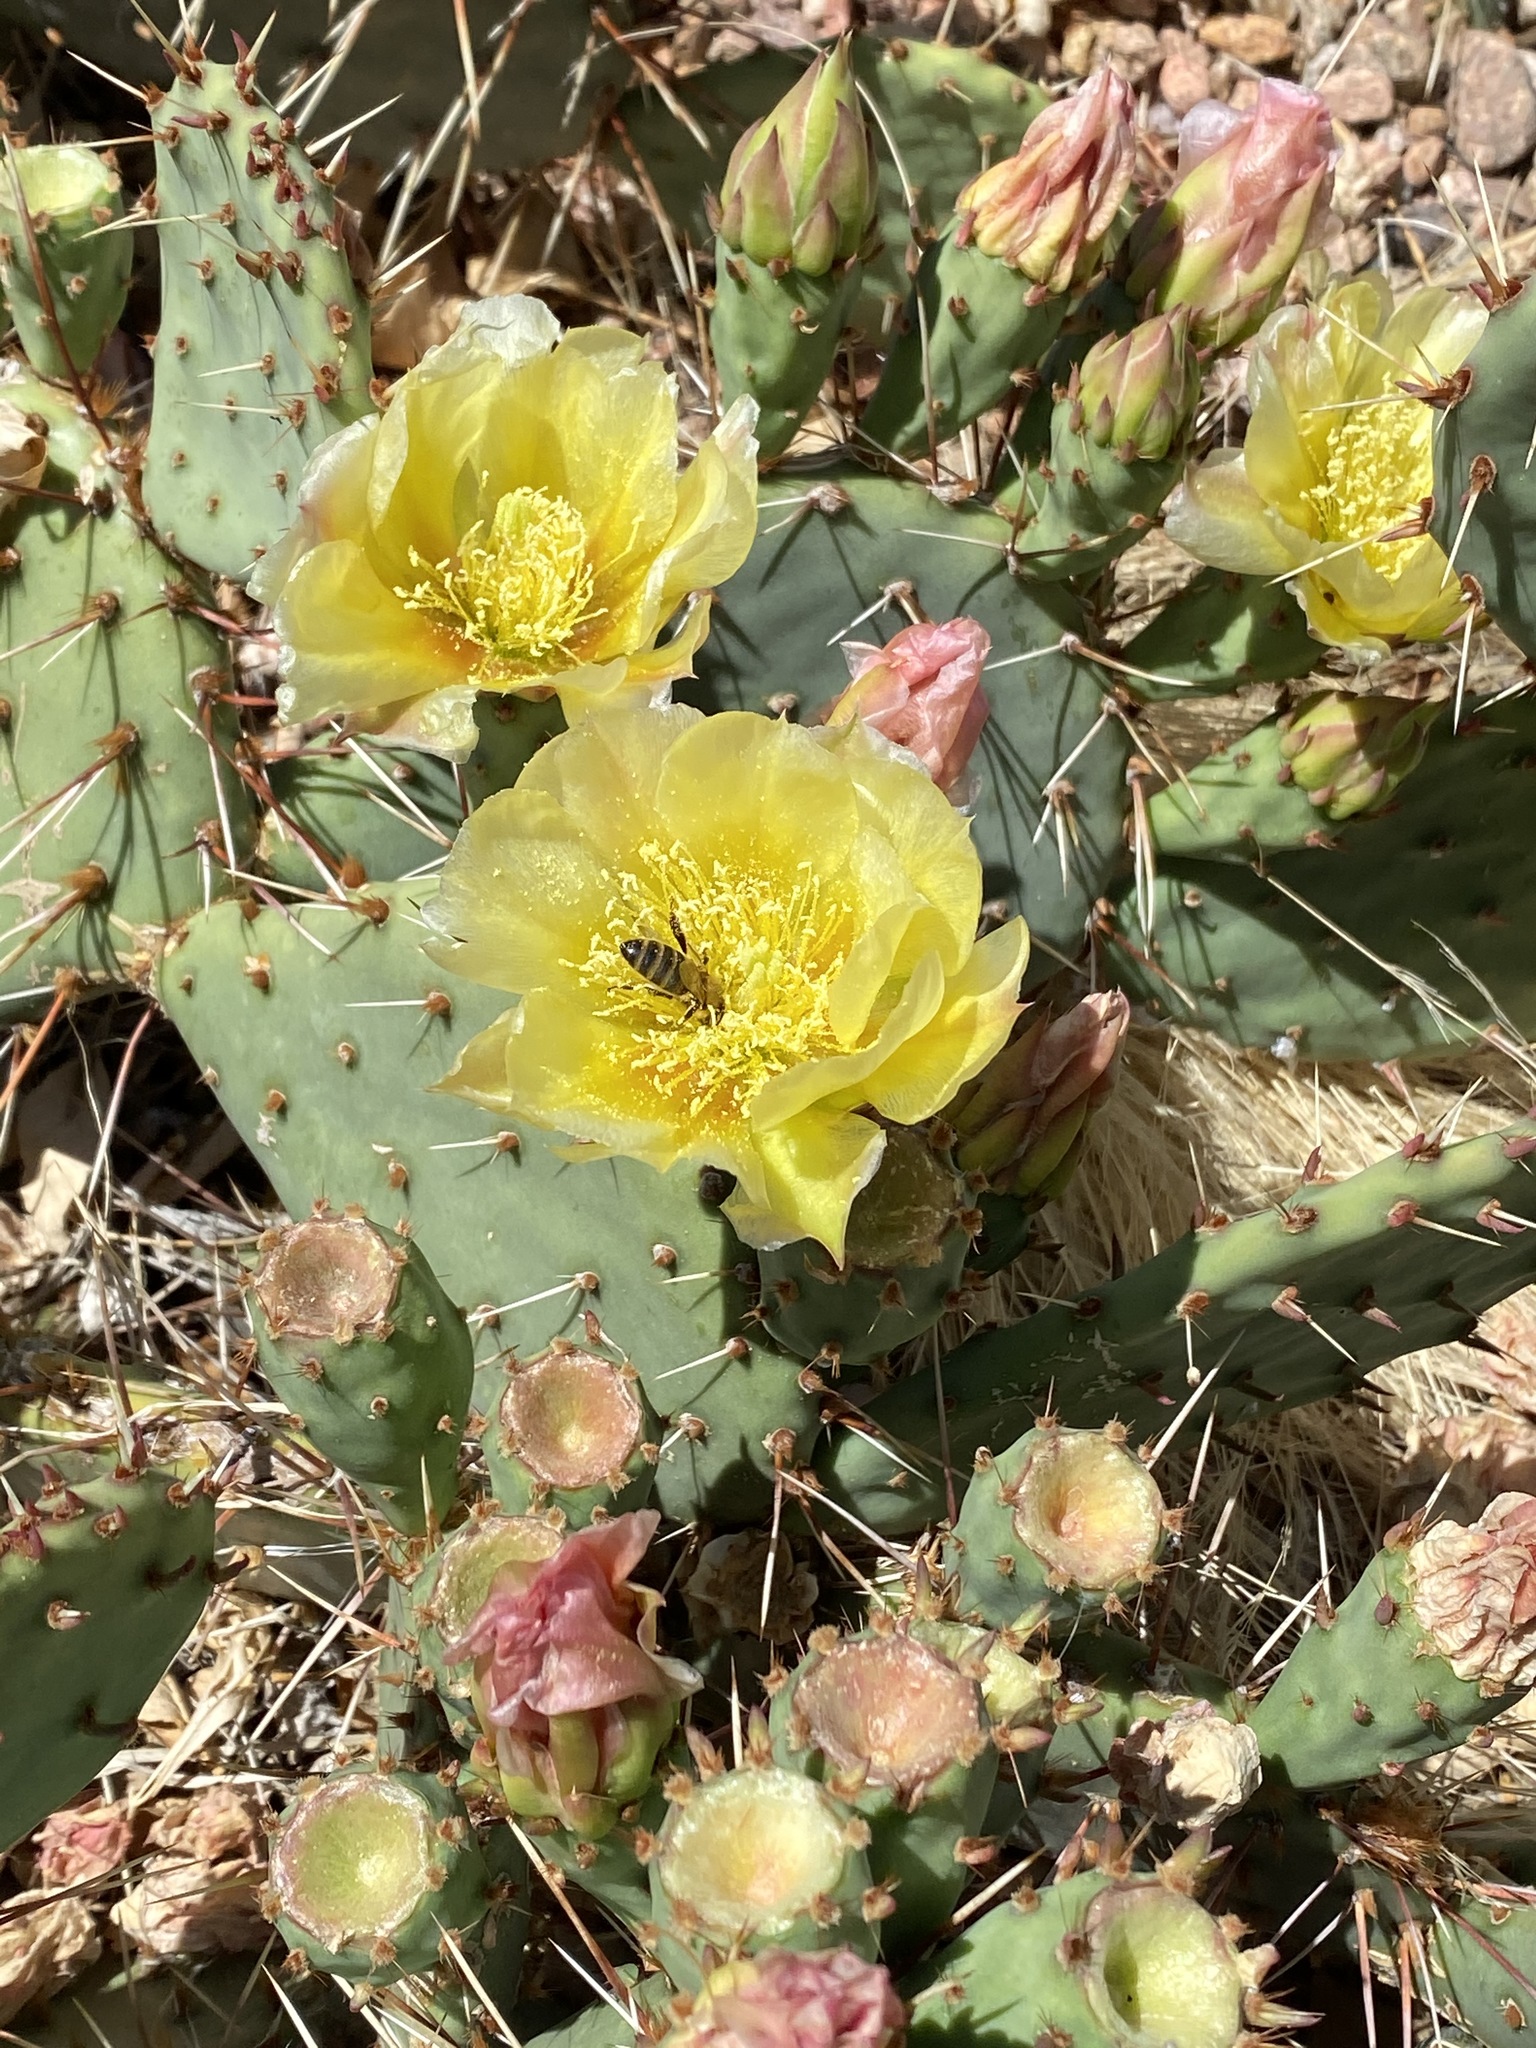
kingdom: Animalia
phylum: Arthropoda
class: Insecta
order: Hymenoptera
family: Apidae
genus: Apis
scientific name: Apis mellifera
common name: Honey bee
